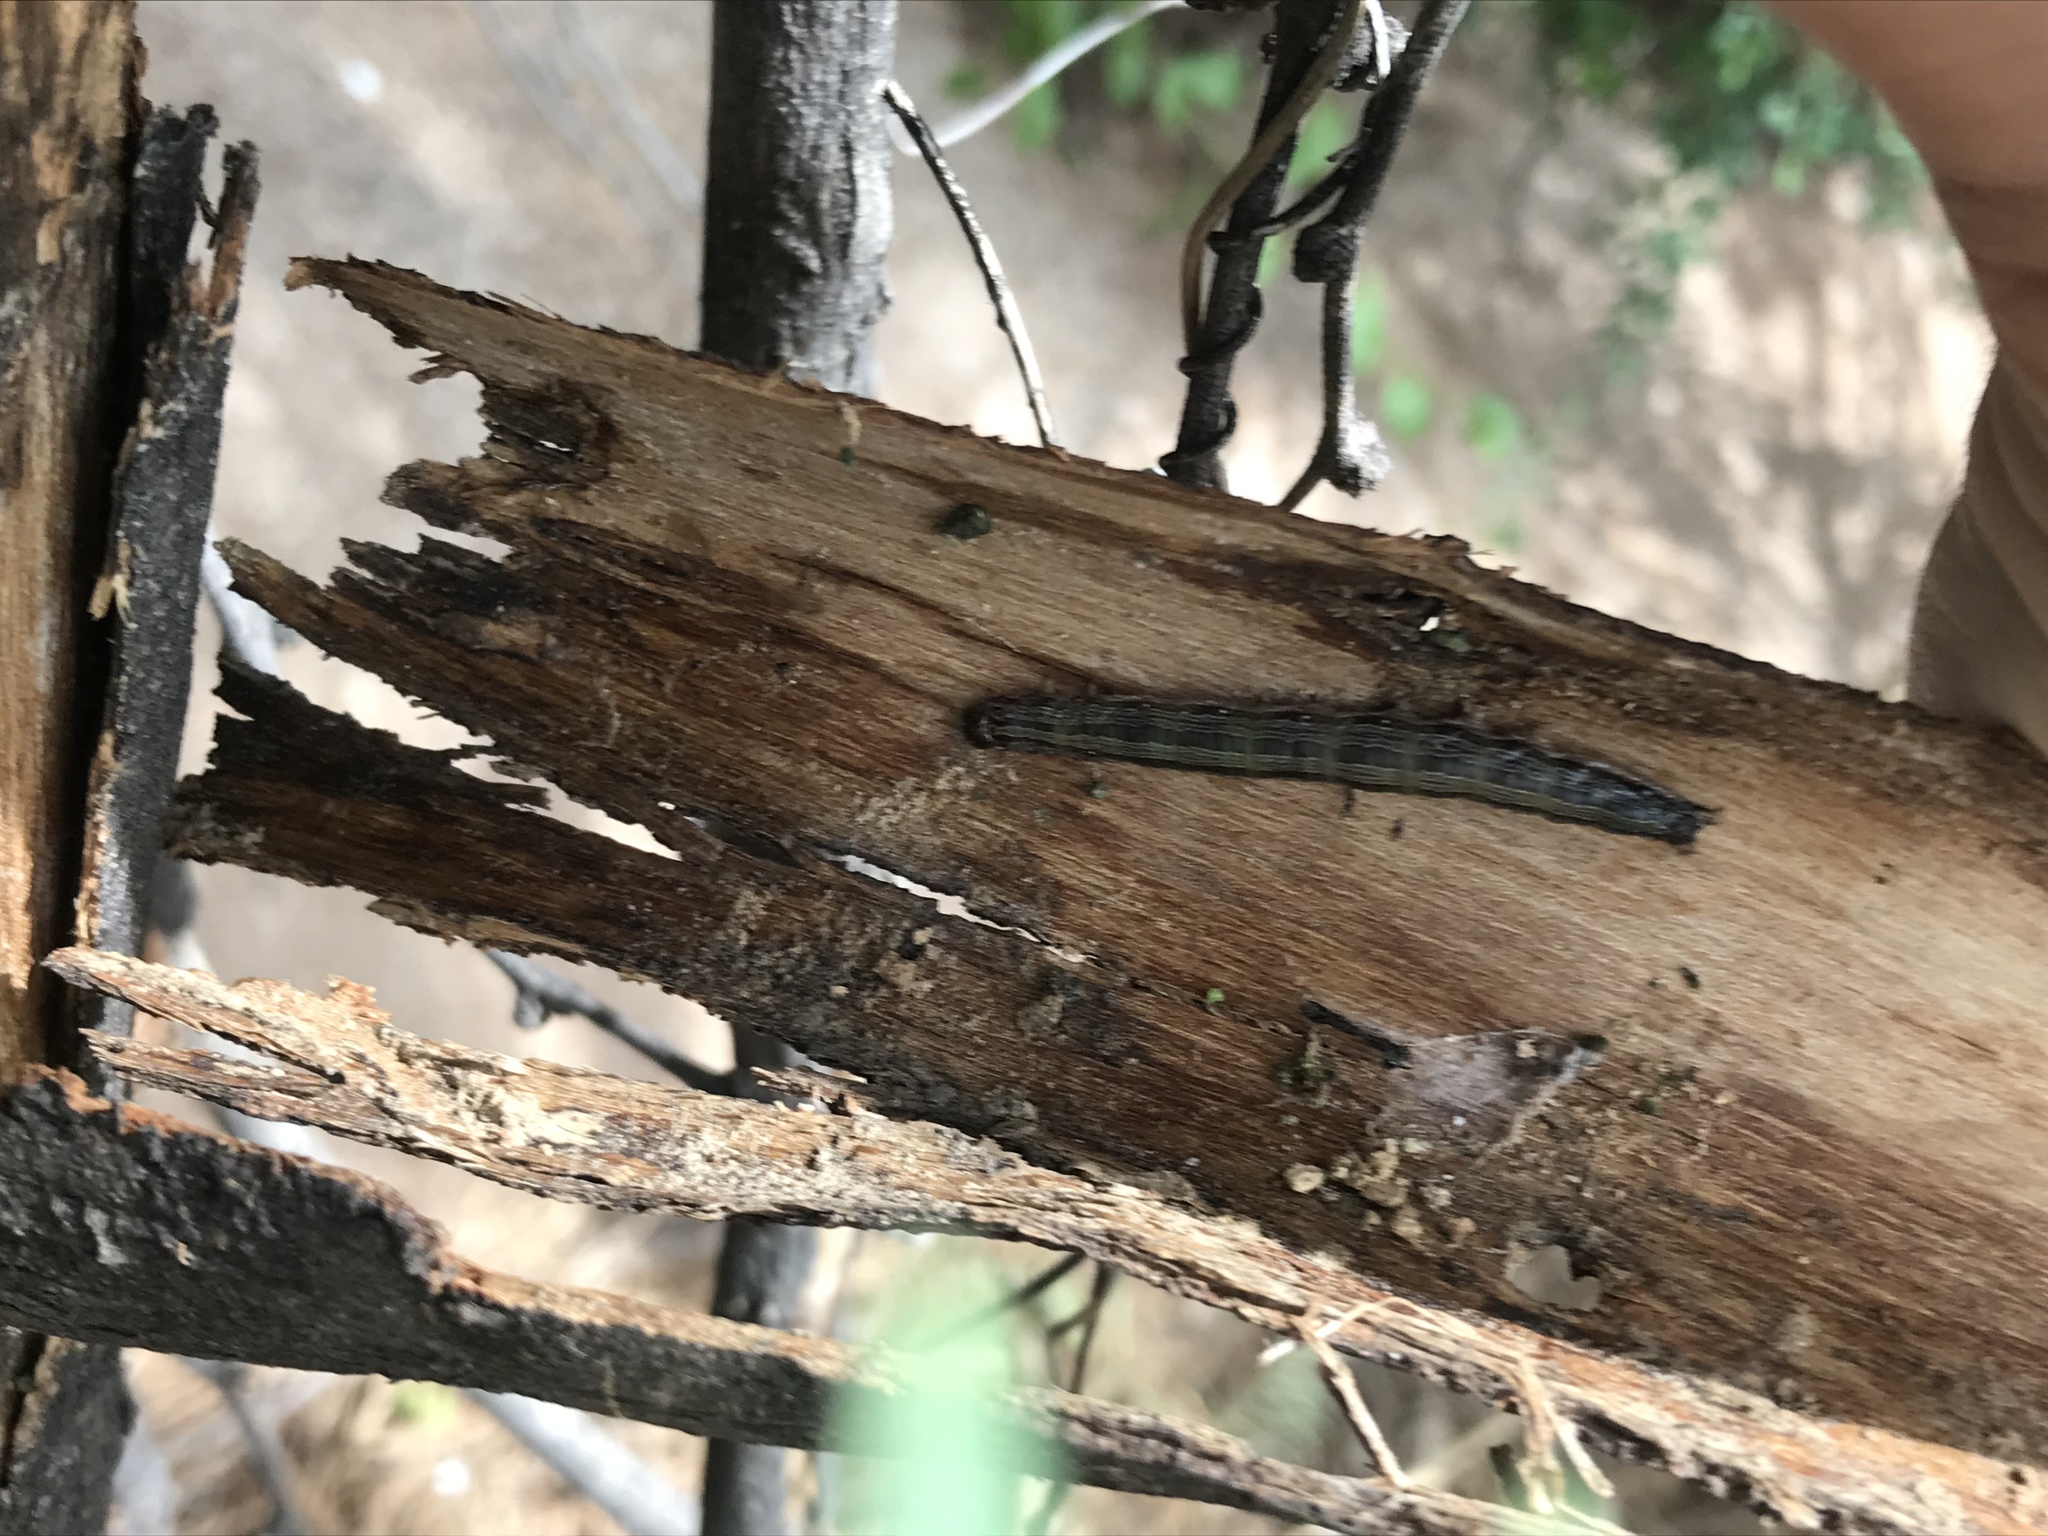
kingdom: Animalia
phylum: Arthropoda
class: Insecta
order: Lepidoptera
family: Erebidae
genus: Melipotis
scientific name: Melipotis indomita
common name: Moth
